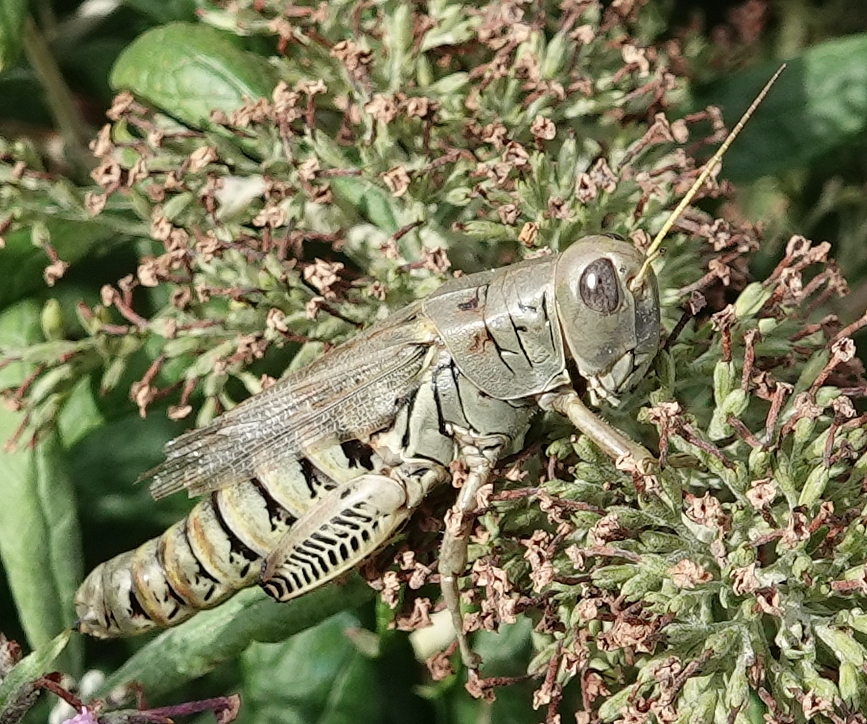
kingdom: Animalia
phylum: Arthropoda
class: Insecta
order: Orthoptera
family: Acrididae
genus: Melanoplus
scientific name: Melanoplus differentialis
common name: Differential grasshopper
